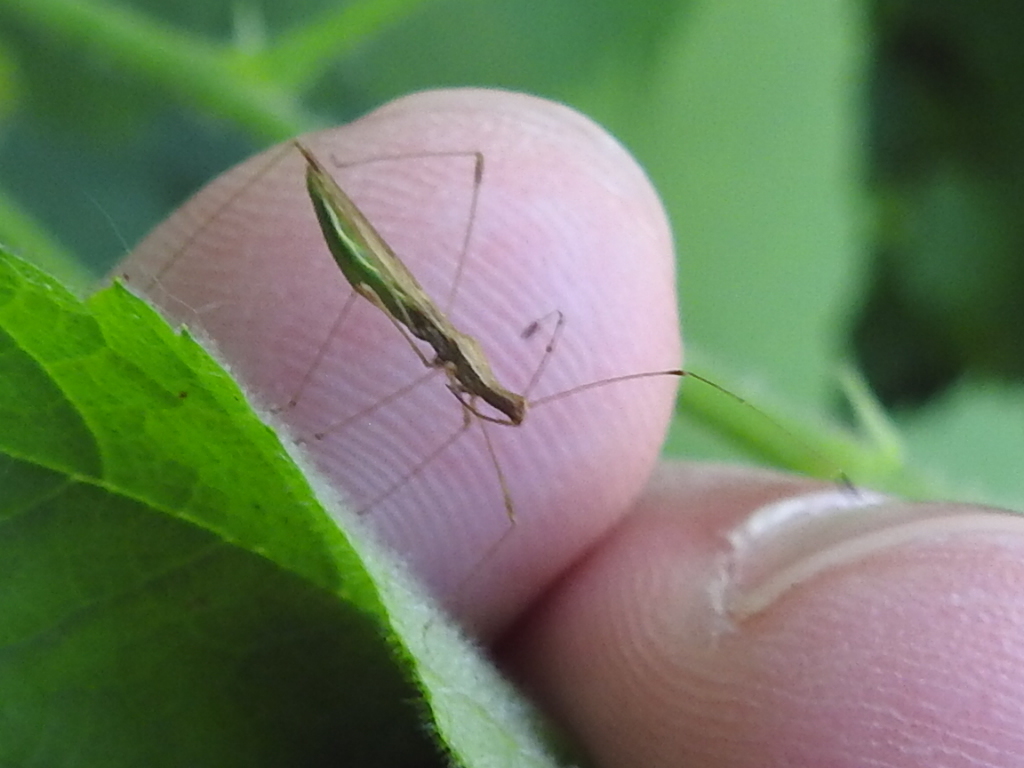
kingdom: Animalia
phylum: Arthropoda
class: Insecta
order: Hemiptera
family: Berytidae
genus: Neoneides
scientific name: Neoneides muticus
